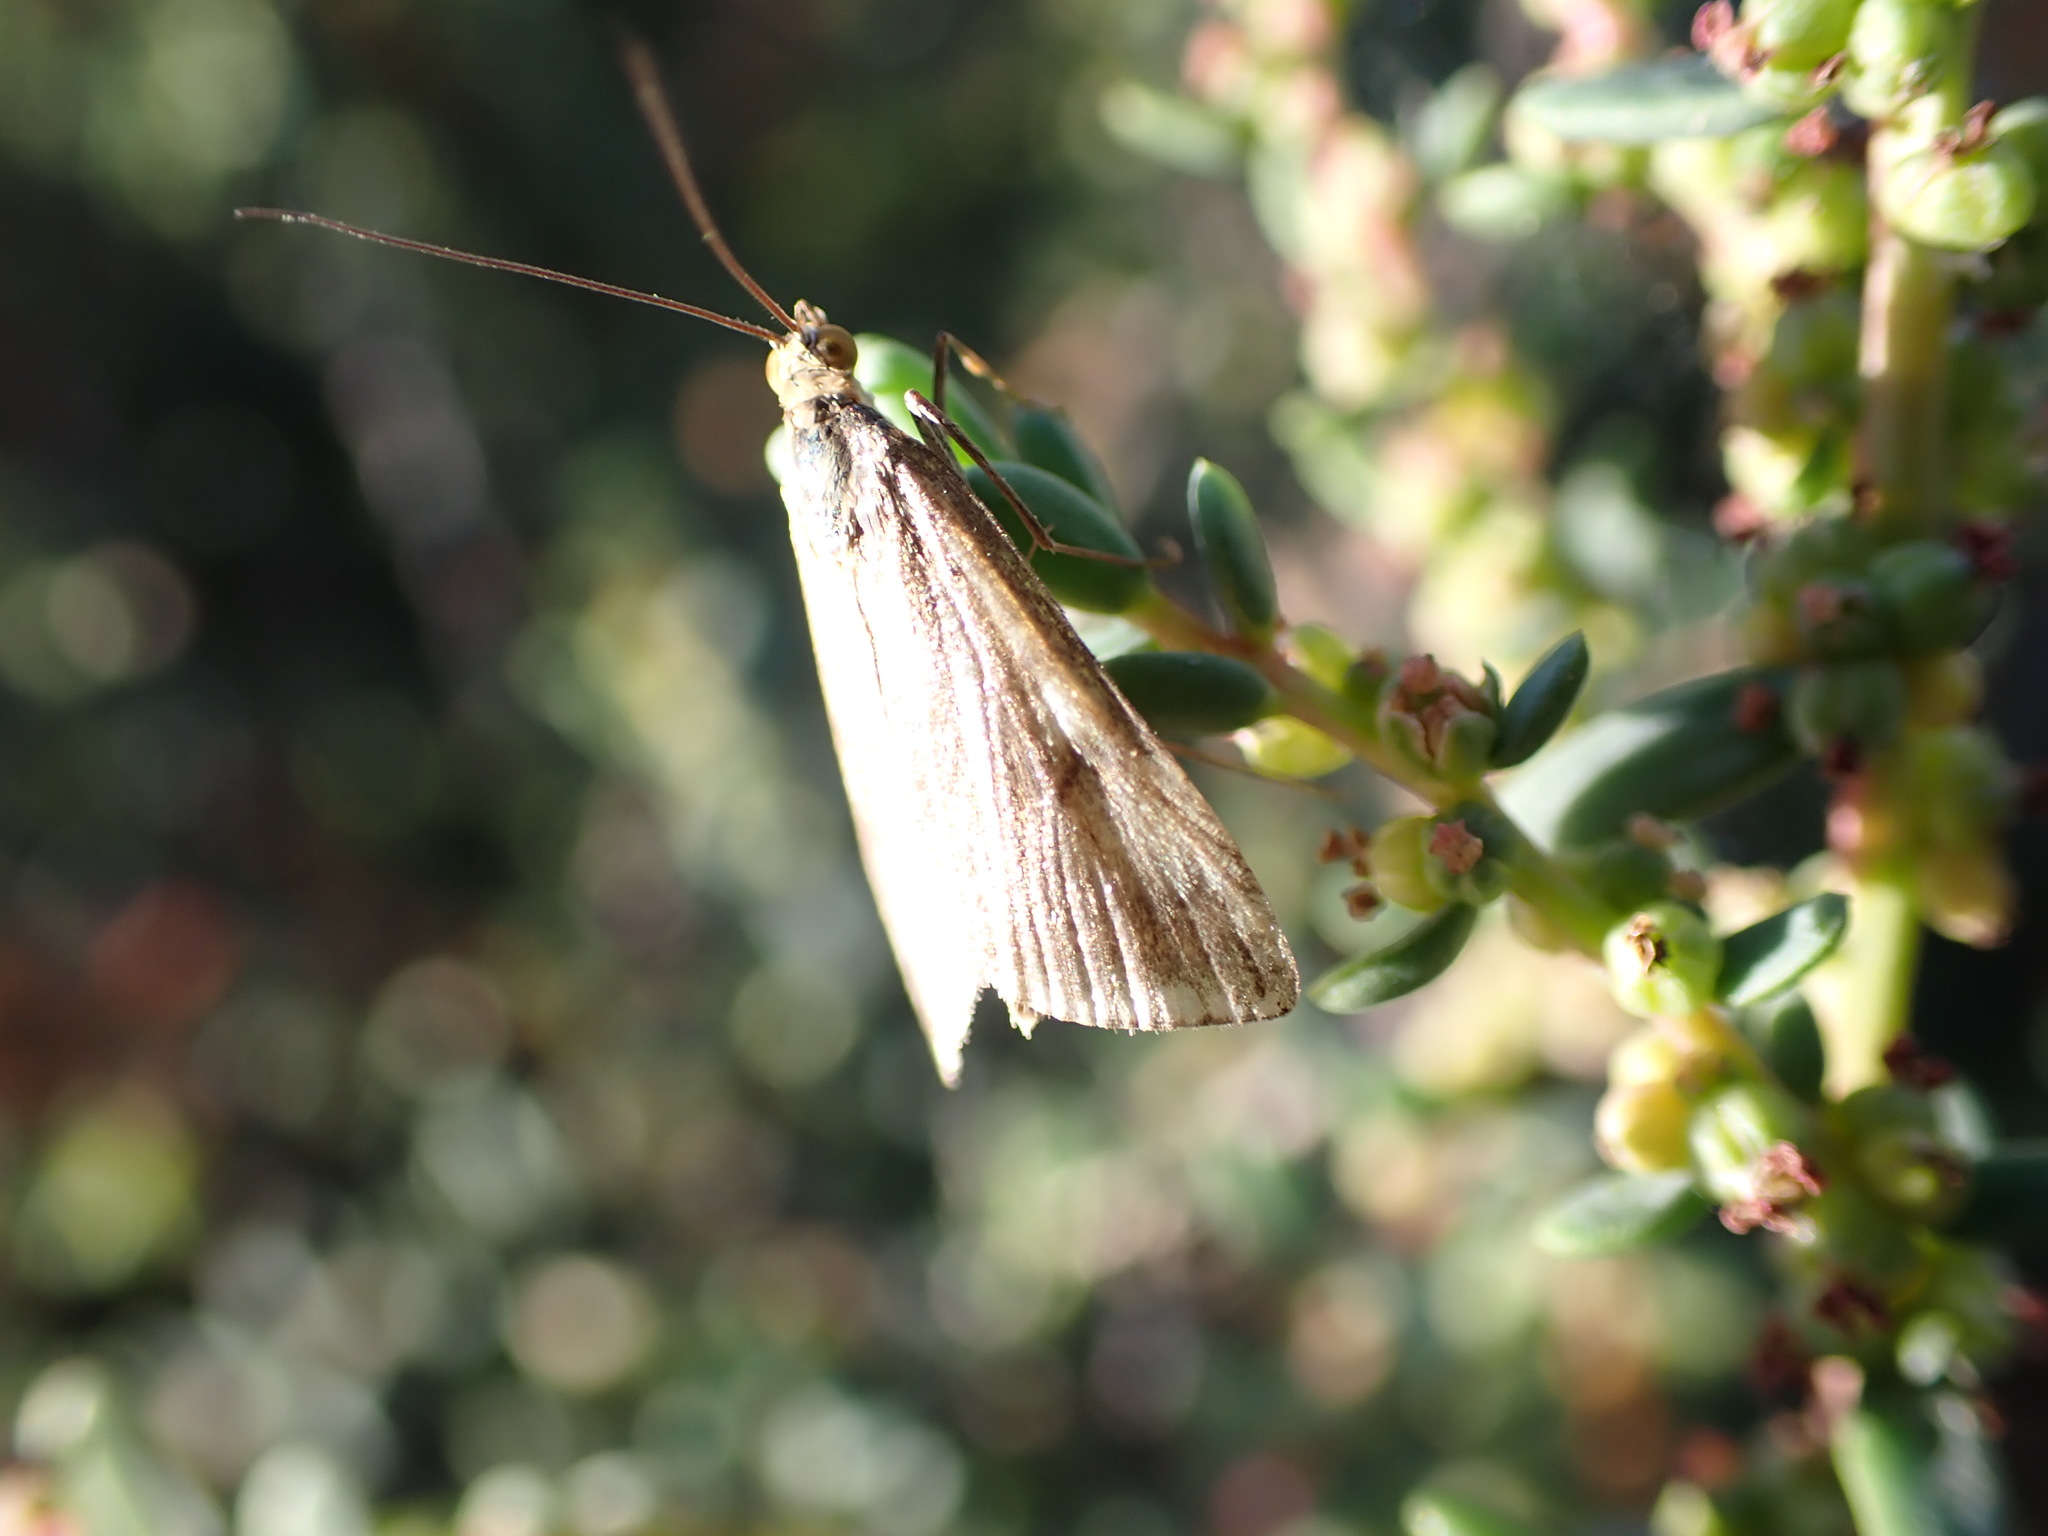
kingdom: Animalia
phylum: Arthropoda
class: Insecta
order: Lepidoptera
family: Crambidae
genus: Loxostege
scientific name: Loxostege sticticalis
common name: Crambid moth
